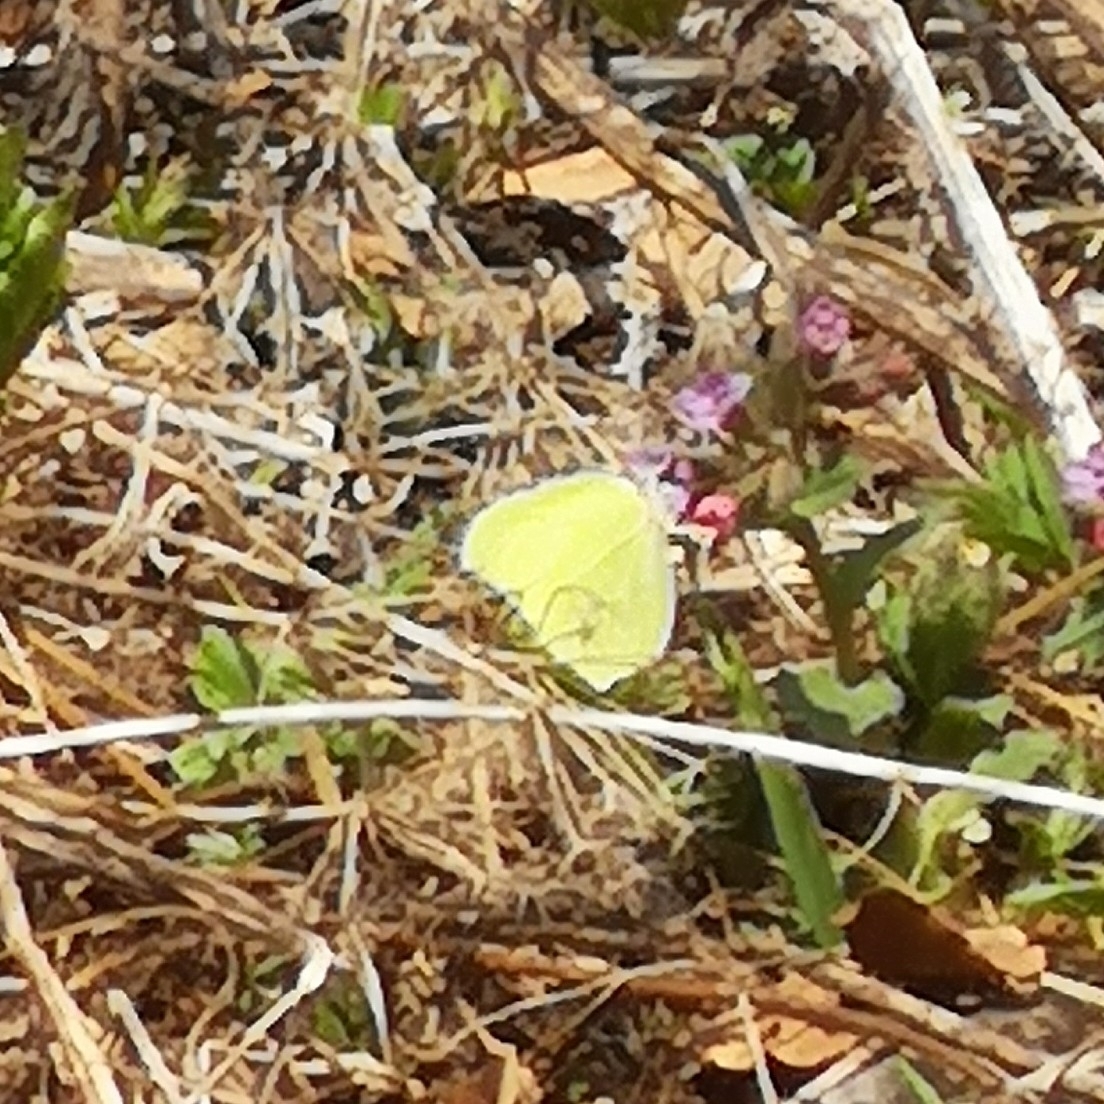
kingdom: Animalia
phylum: Arthropoda
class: Insecta
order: Lepidoptera
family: Pieridae
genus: Gonepteryx
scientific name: Gonepteryx rhamni
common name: Brimstone
